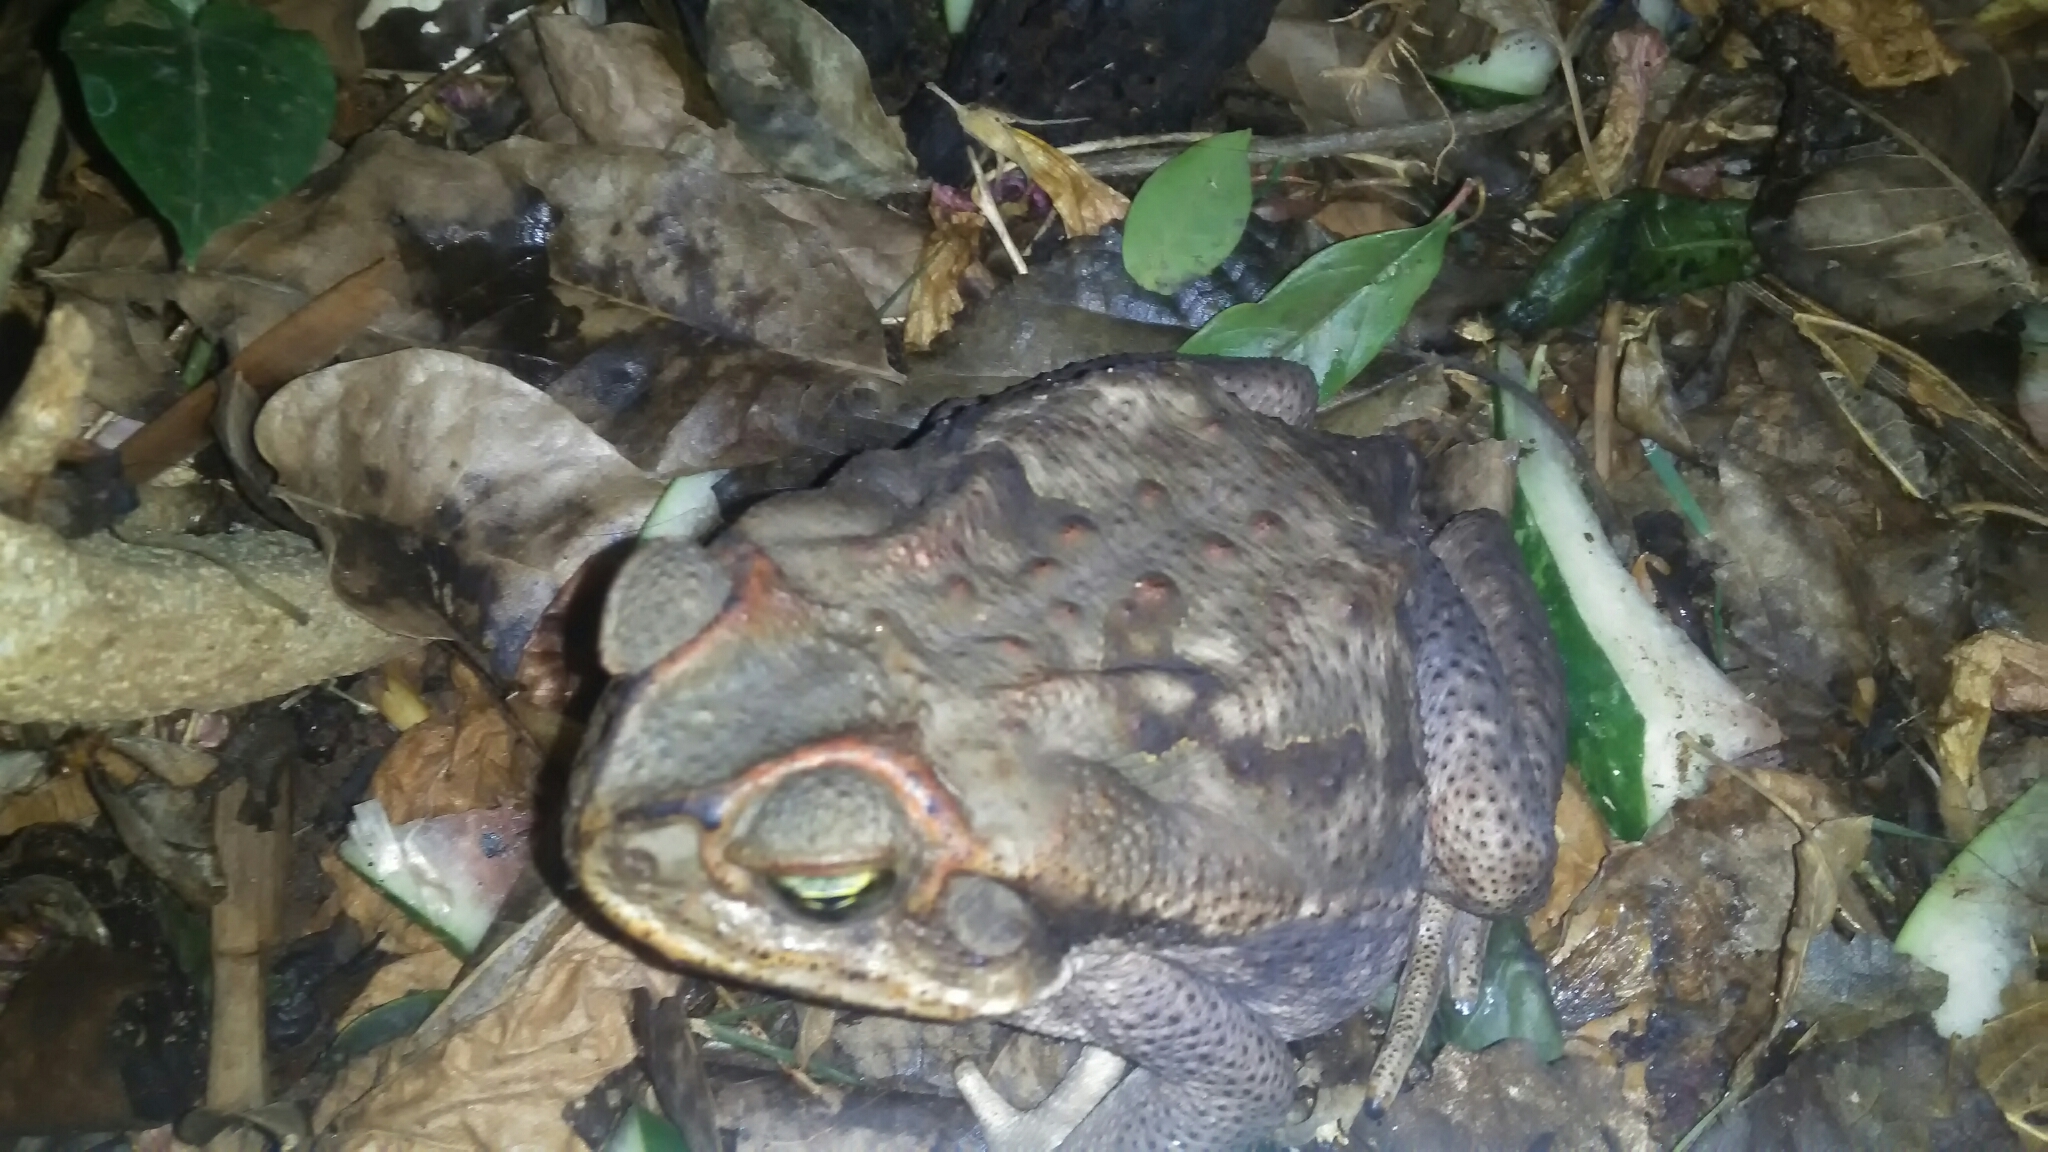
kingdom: Animalia
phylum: Chordata
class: Amphibia
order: Anura
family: Bufonidae
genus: Rhinella
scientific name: Rhinella diptycha
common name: Cope's toad
